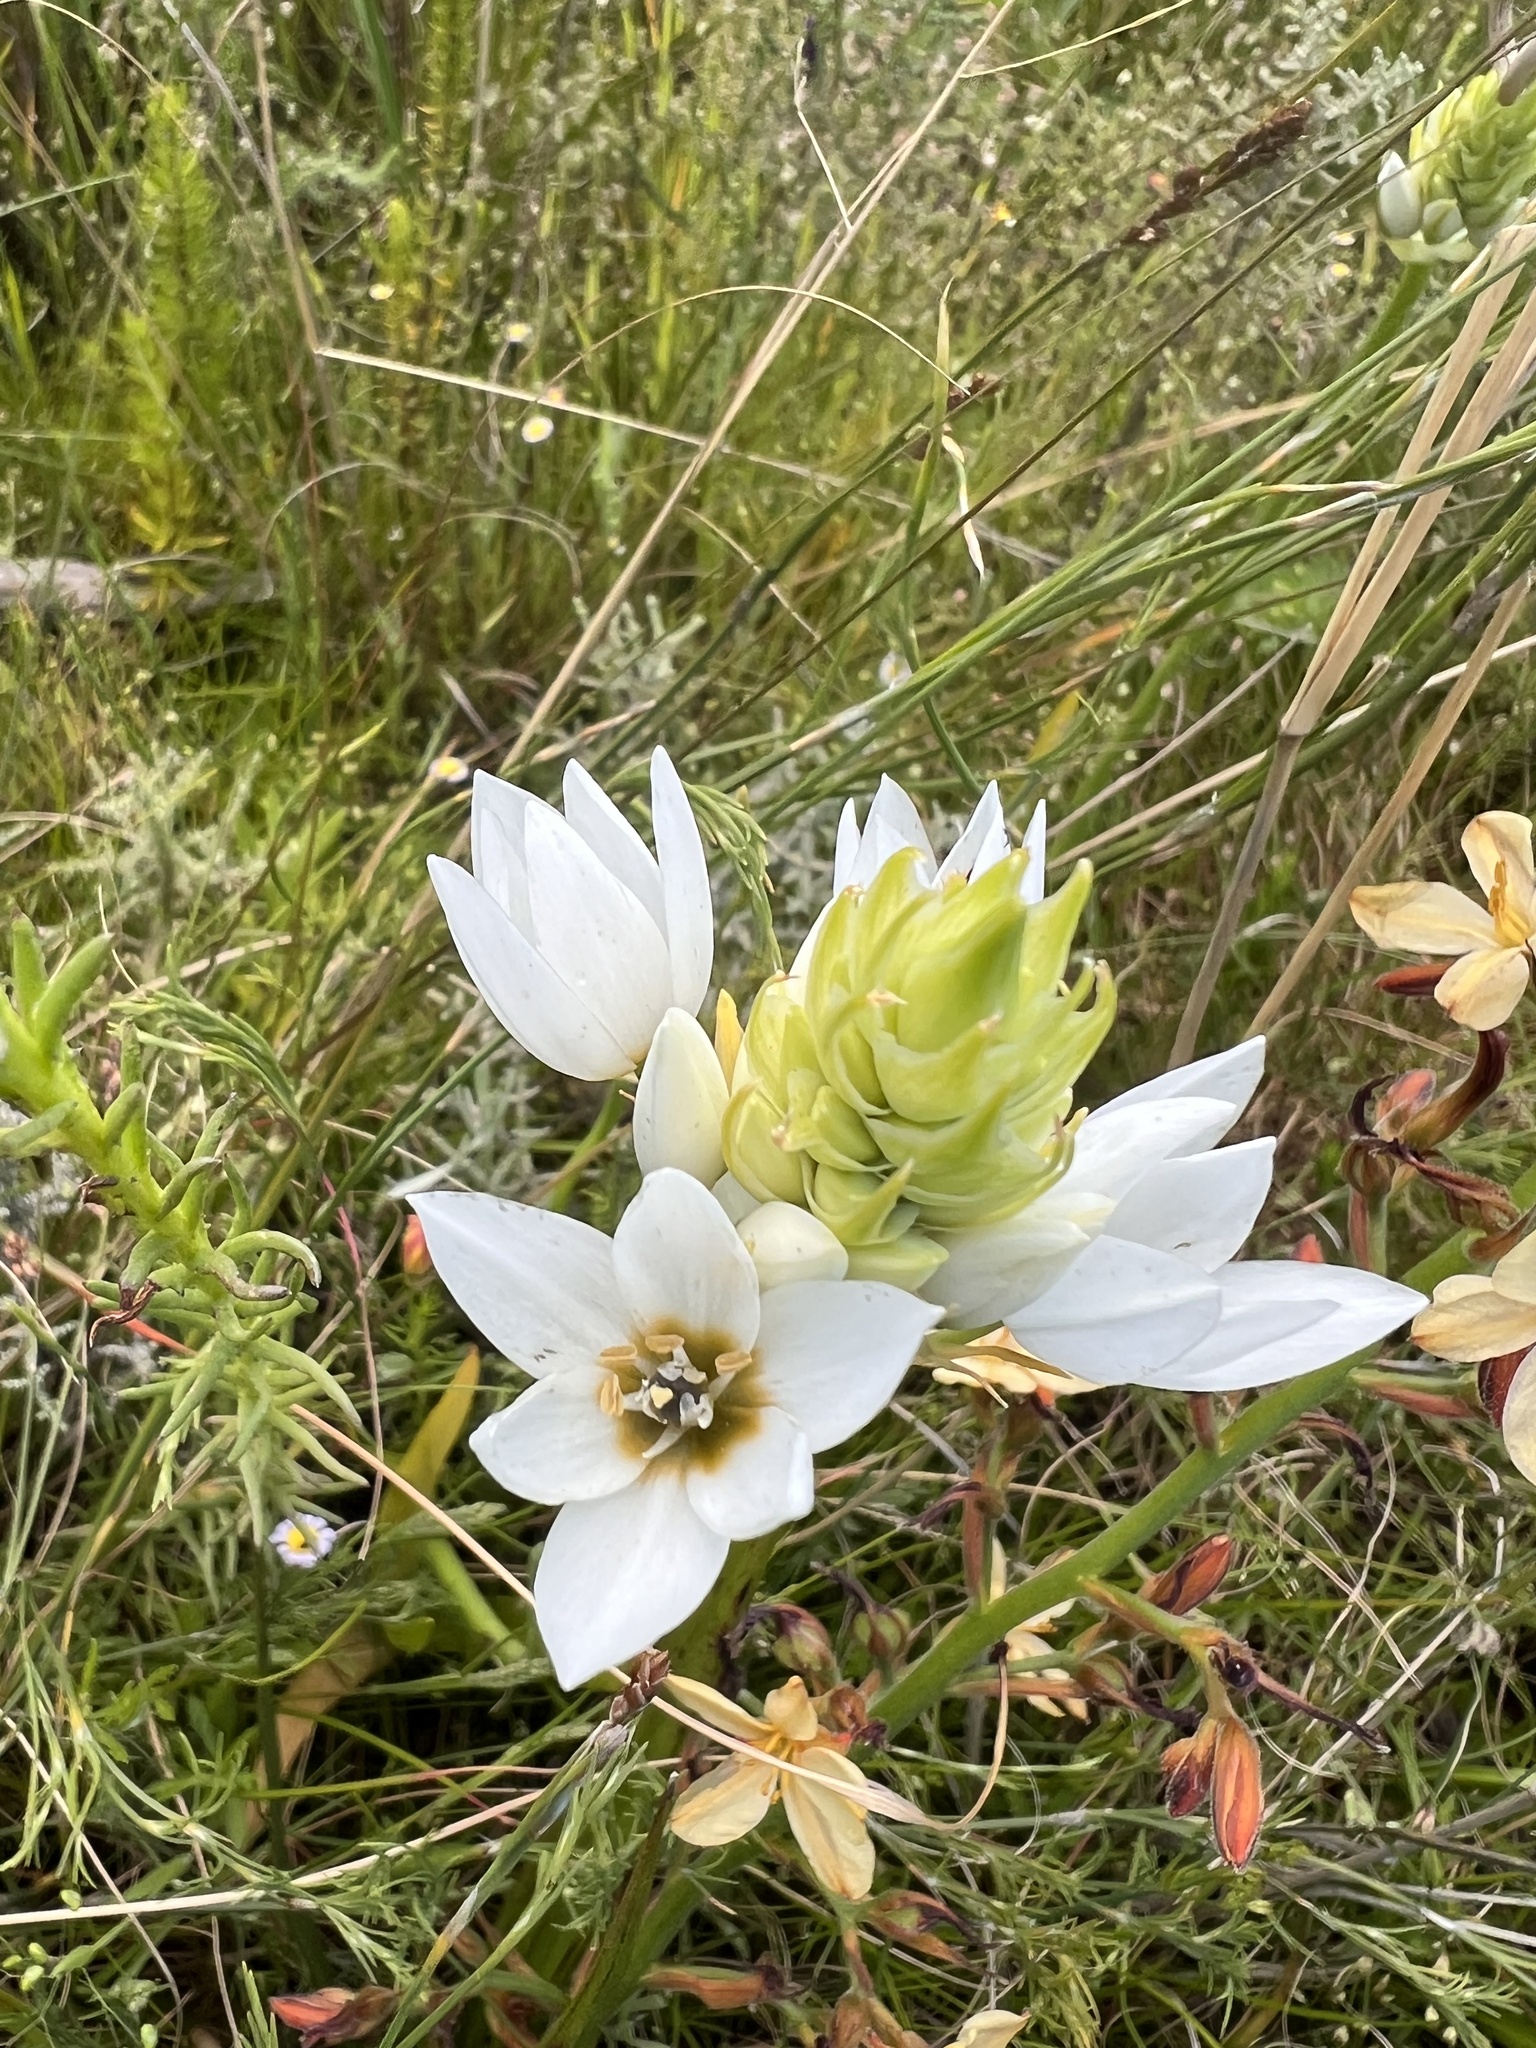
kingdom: Plantae
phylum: Tracheophyta
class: Liliopsida
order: Asparagales
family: Asparagaceae
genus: Ornithogalum
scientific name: Ornithogalum thyrsoides
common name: Chincherinchee
